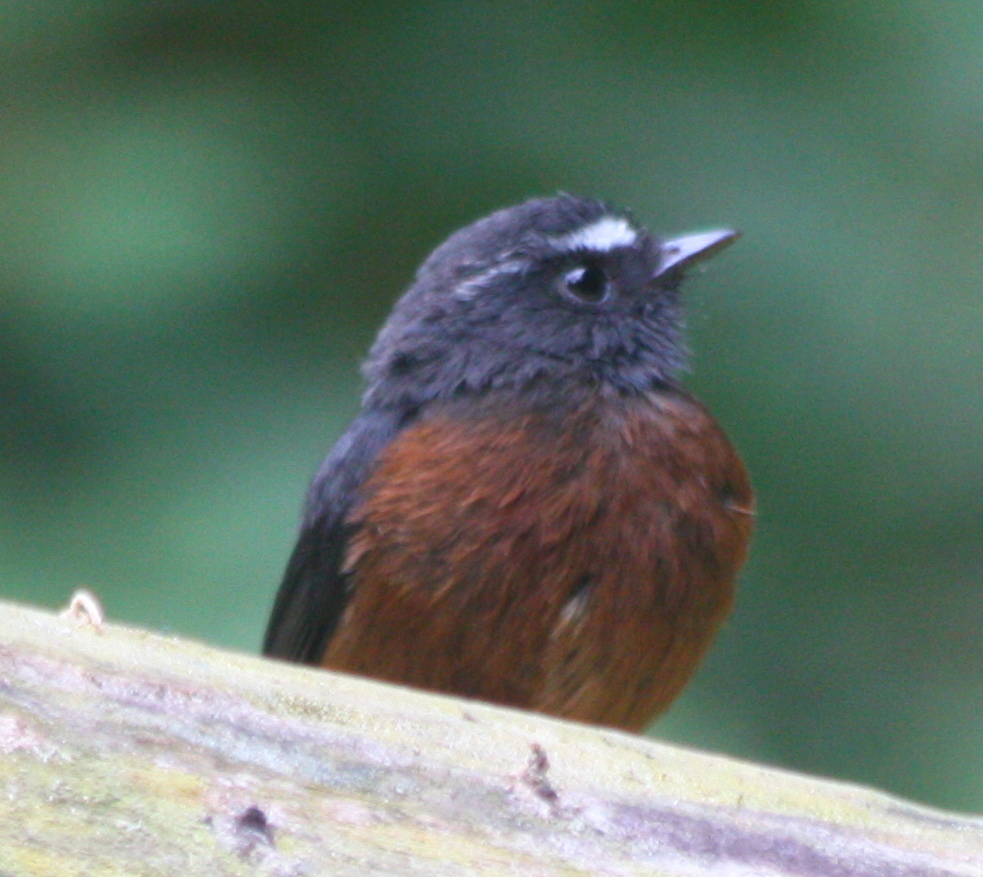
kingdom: Animalia
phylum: Chordata
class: Aves
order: Passeriformes
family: Tyrannidae
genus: Ochthoeca
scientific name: Ochthoeca cinnamomeiventris
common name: Slaty-backed chat-tyrant
